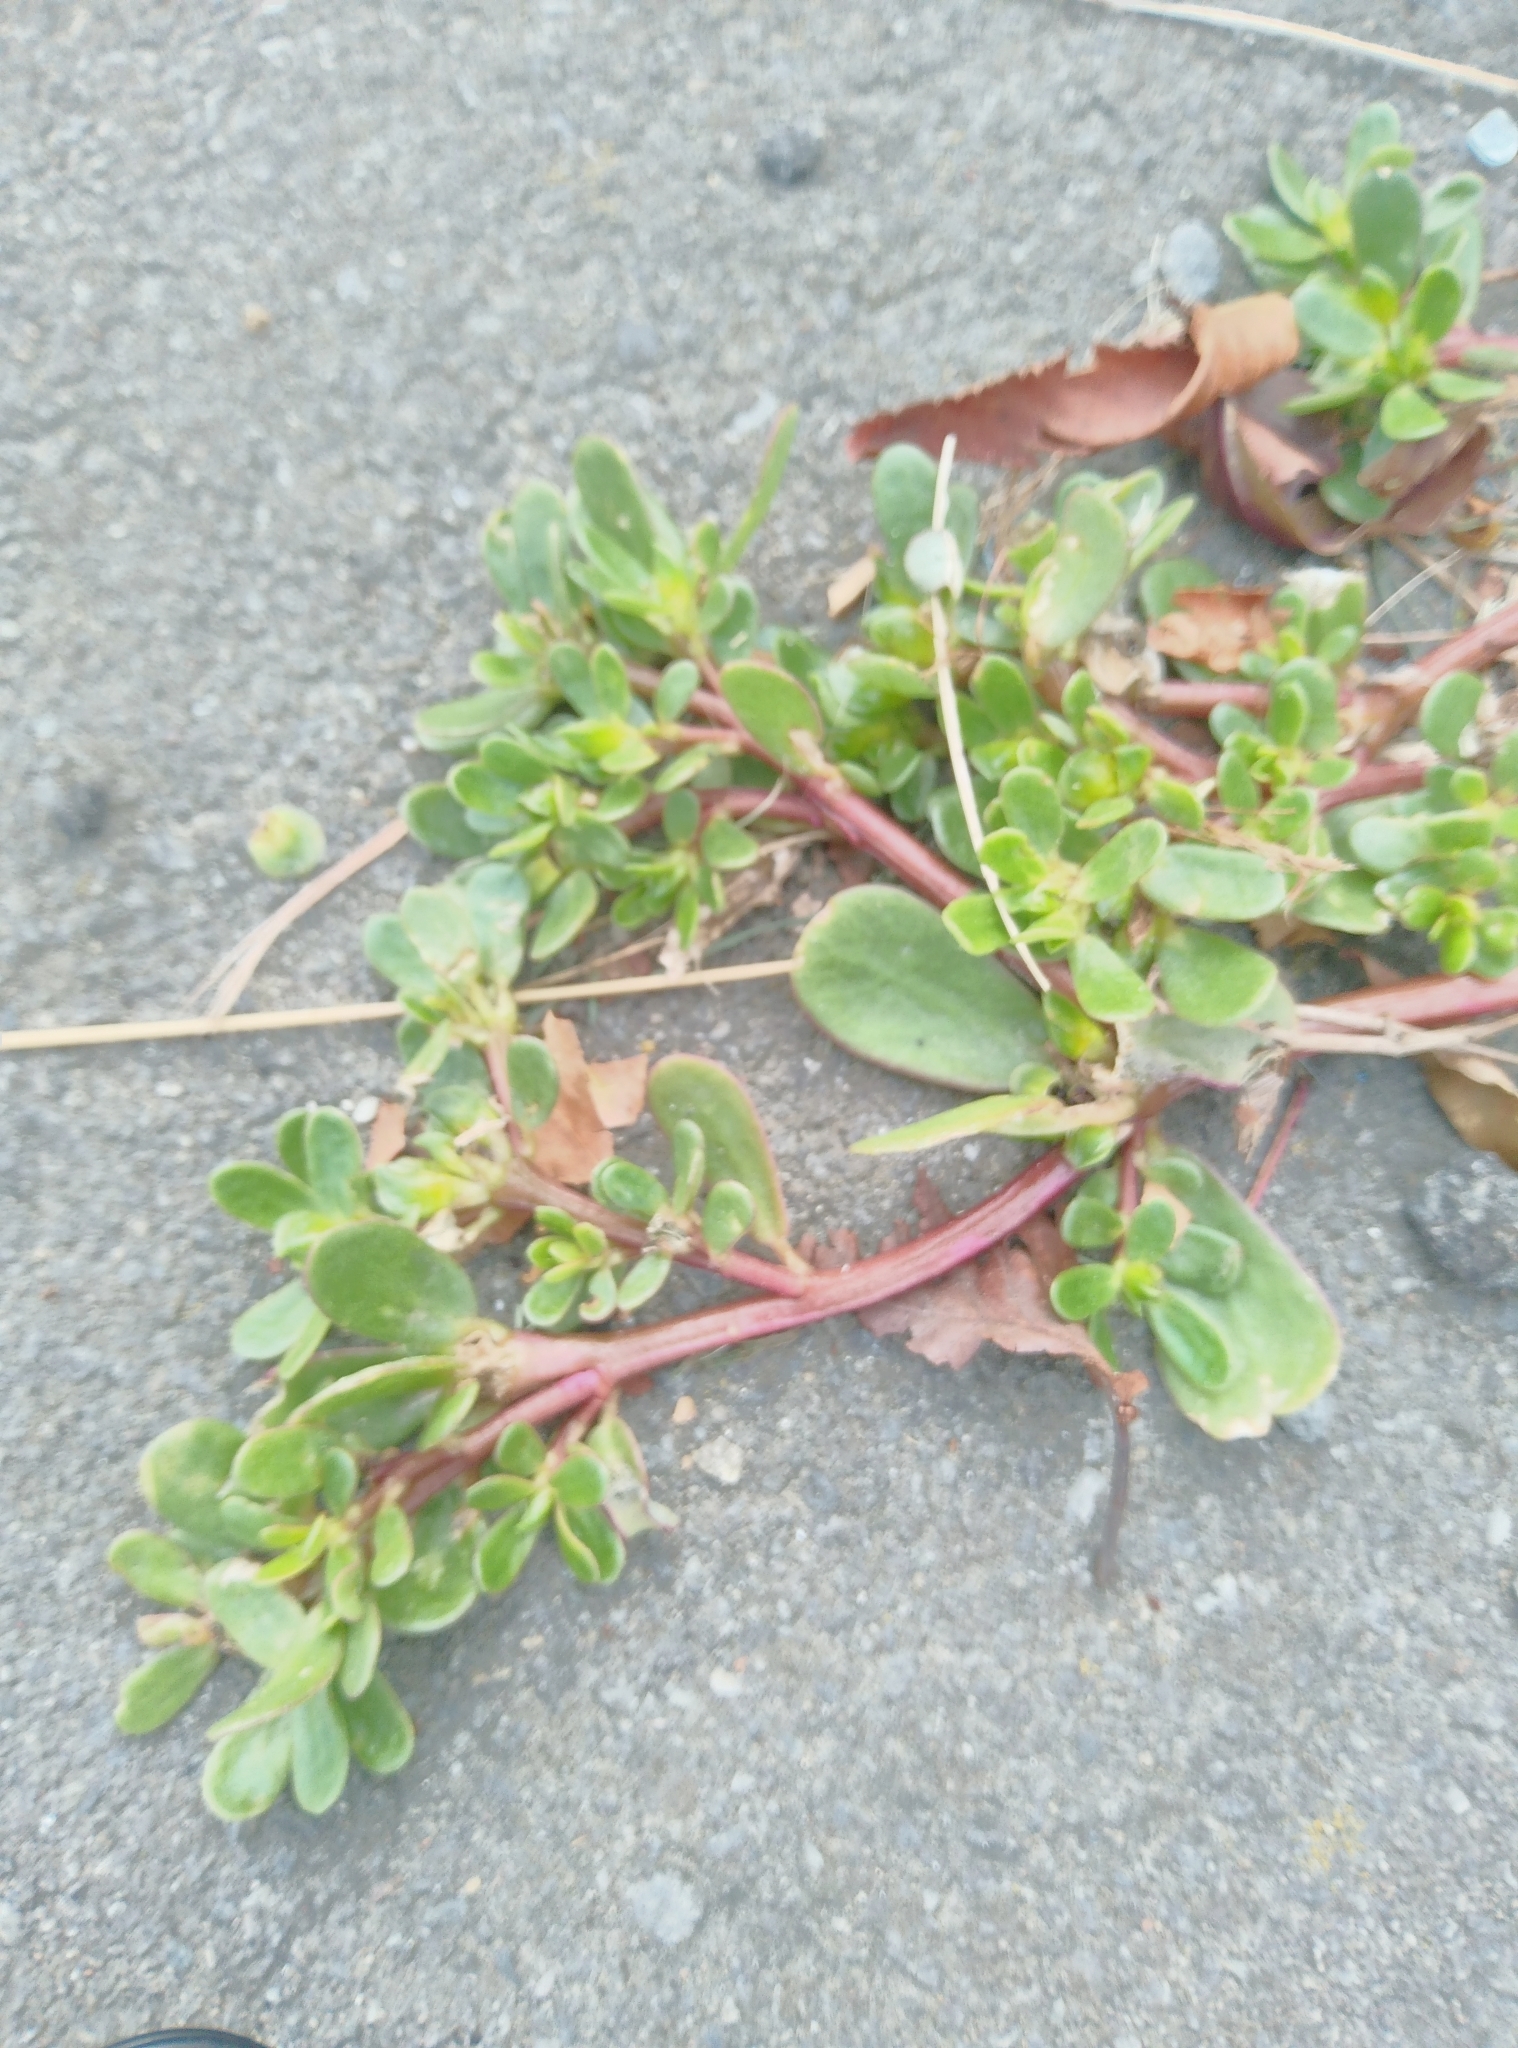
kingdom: Plantae
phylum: Tracheophyta
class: Magnoliopsida
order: Caryophyllales
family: Portulacaceae
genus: Portulaca
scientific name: Portulaca oleracea
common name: Common purslane
